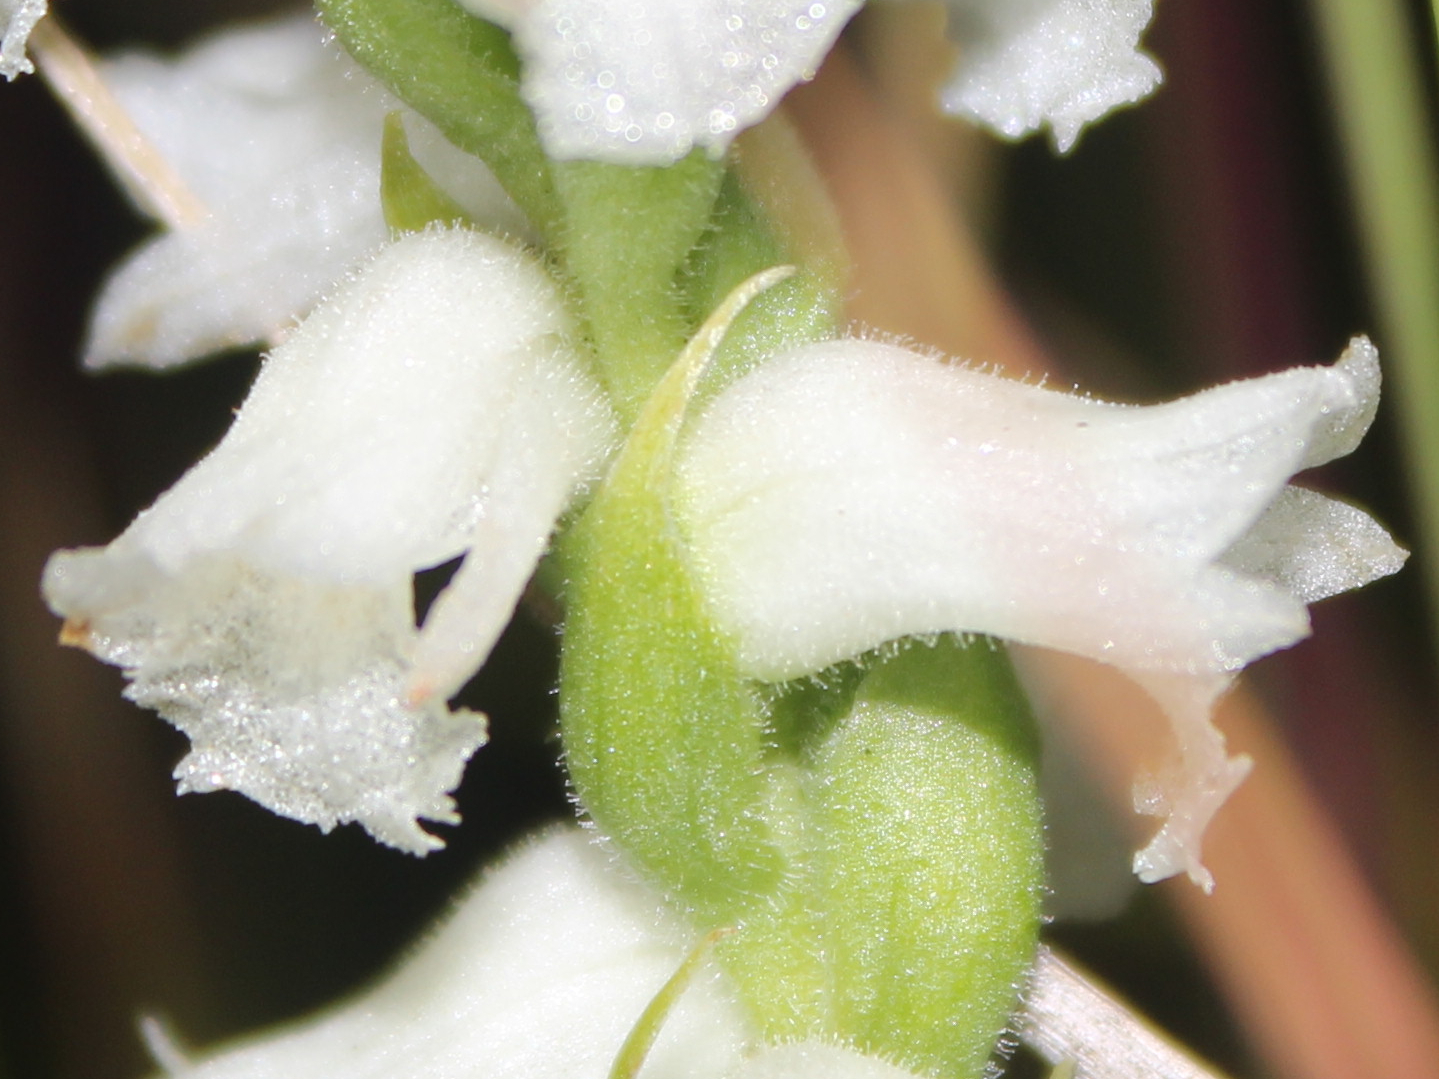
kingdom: Plantae
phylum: Tracheophyta
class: Liliopsida
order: Asparagales
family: Orchidaceae
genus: Spiranthes
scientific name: Spiranthes arcisepala
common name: Appalachian ladies'-tresses
